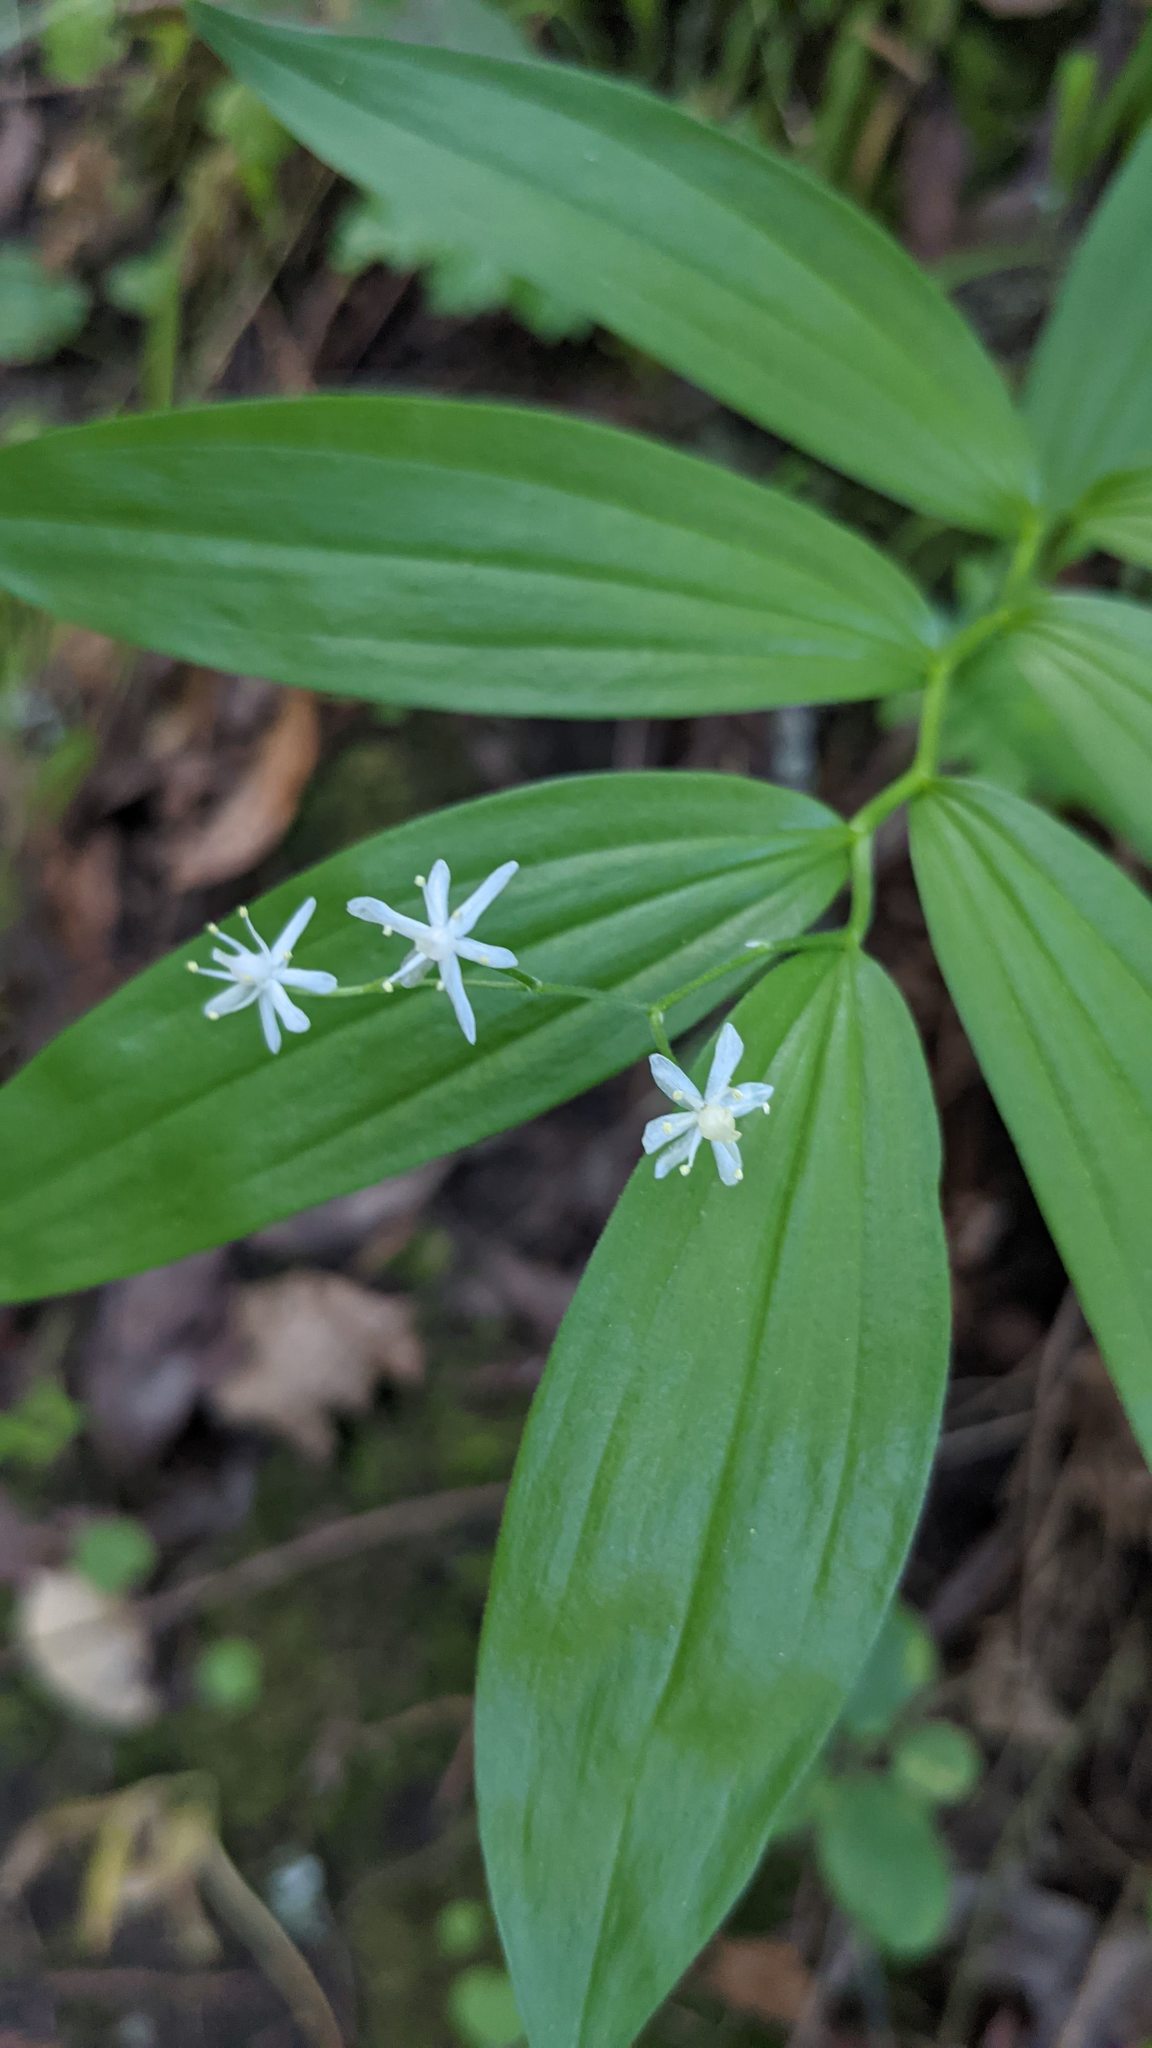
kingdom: Plantae
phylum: Tracheophyta
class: Liliopsida
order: Asparagales
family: Asparagaceae
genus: Maianthemum
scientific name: Maianthemum stellatum
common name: Little false solomon's seal
